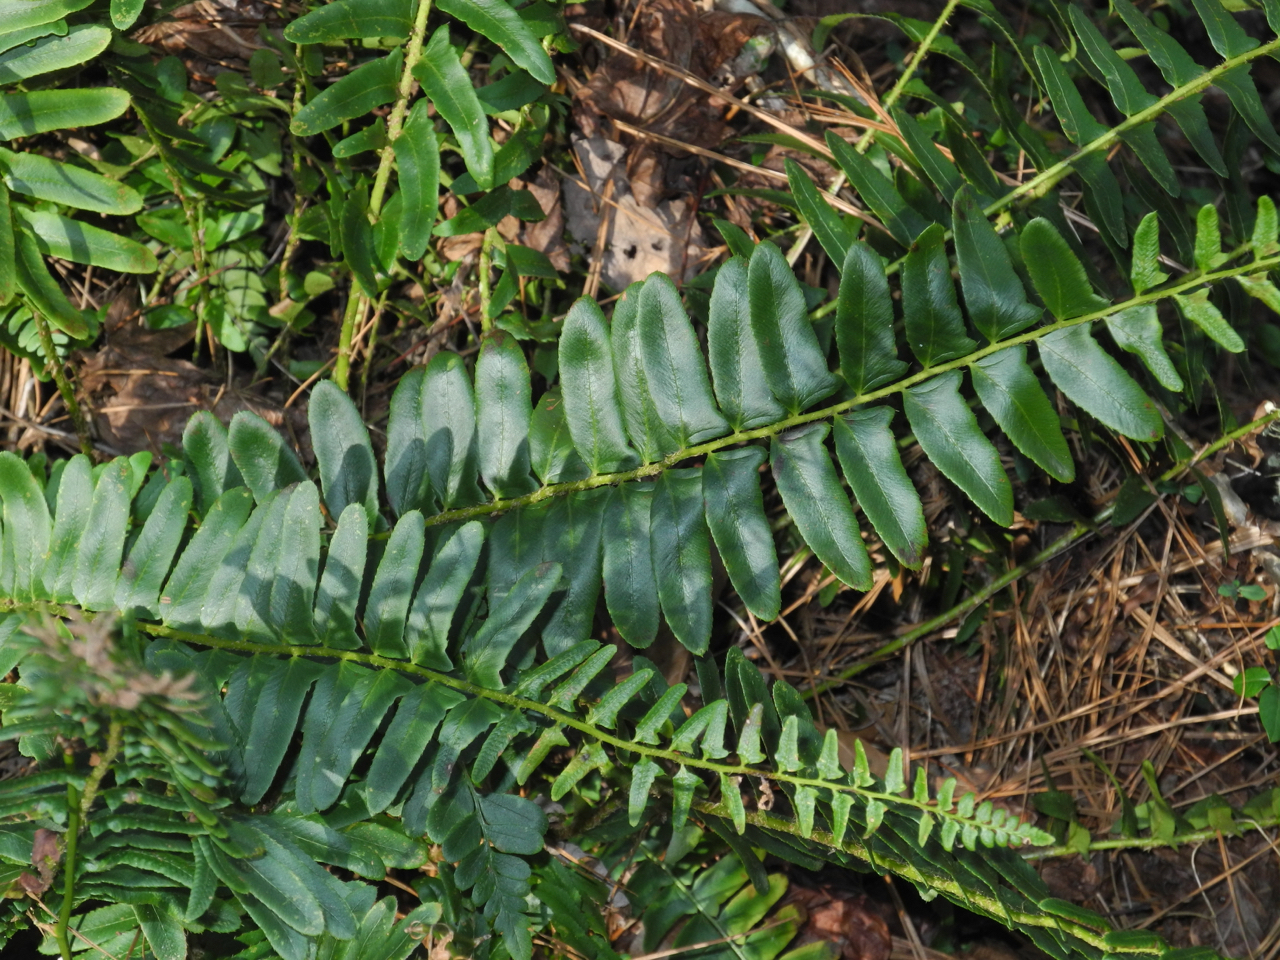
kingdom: Plantae
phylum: Tracheophyta
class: Polypodiopsida
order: Polypodiales
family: Dryopteridaceae
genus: Polystichum
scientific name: Polystichum acrostichoides
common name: Christmas fern
